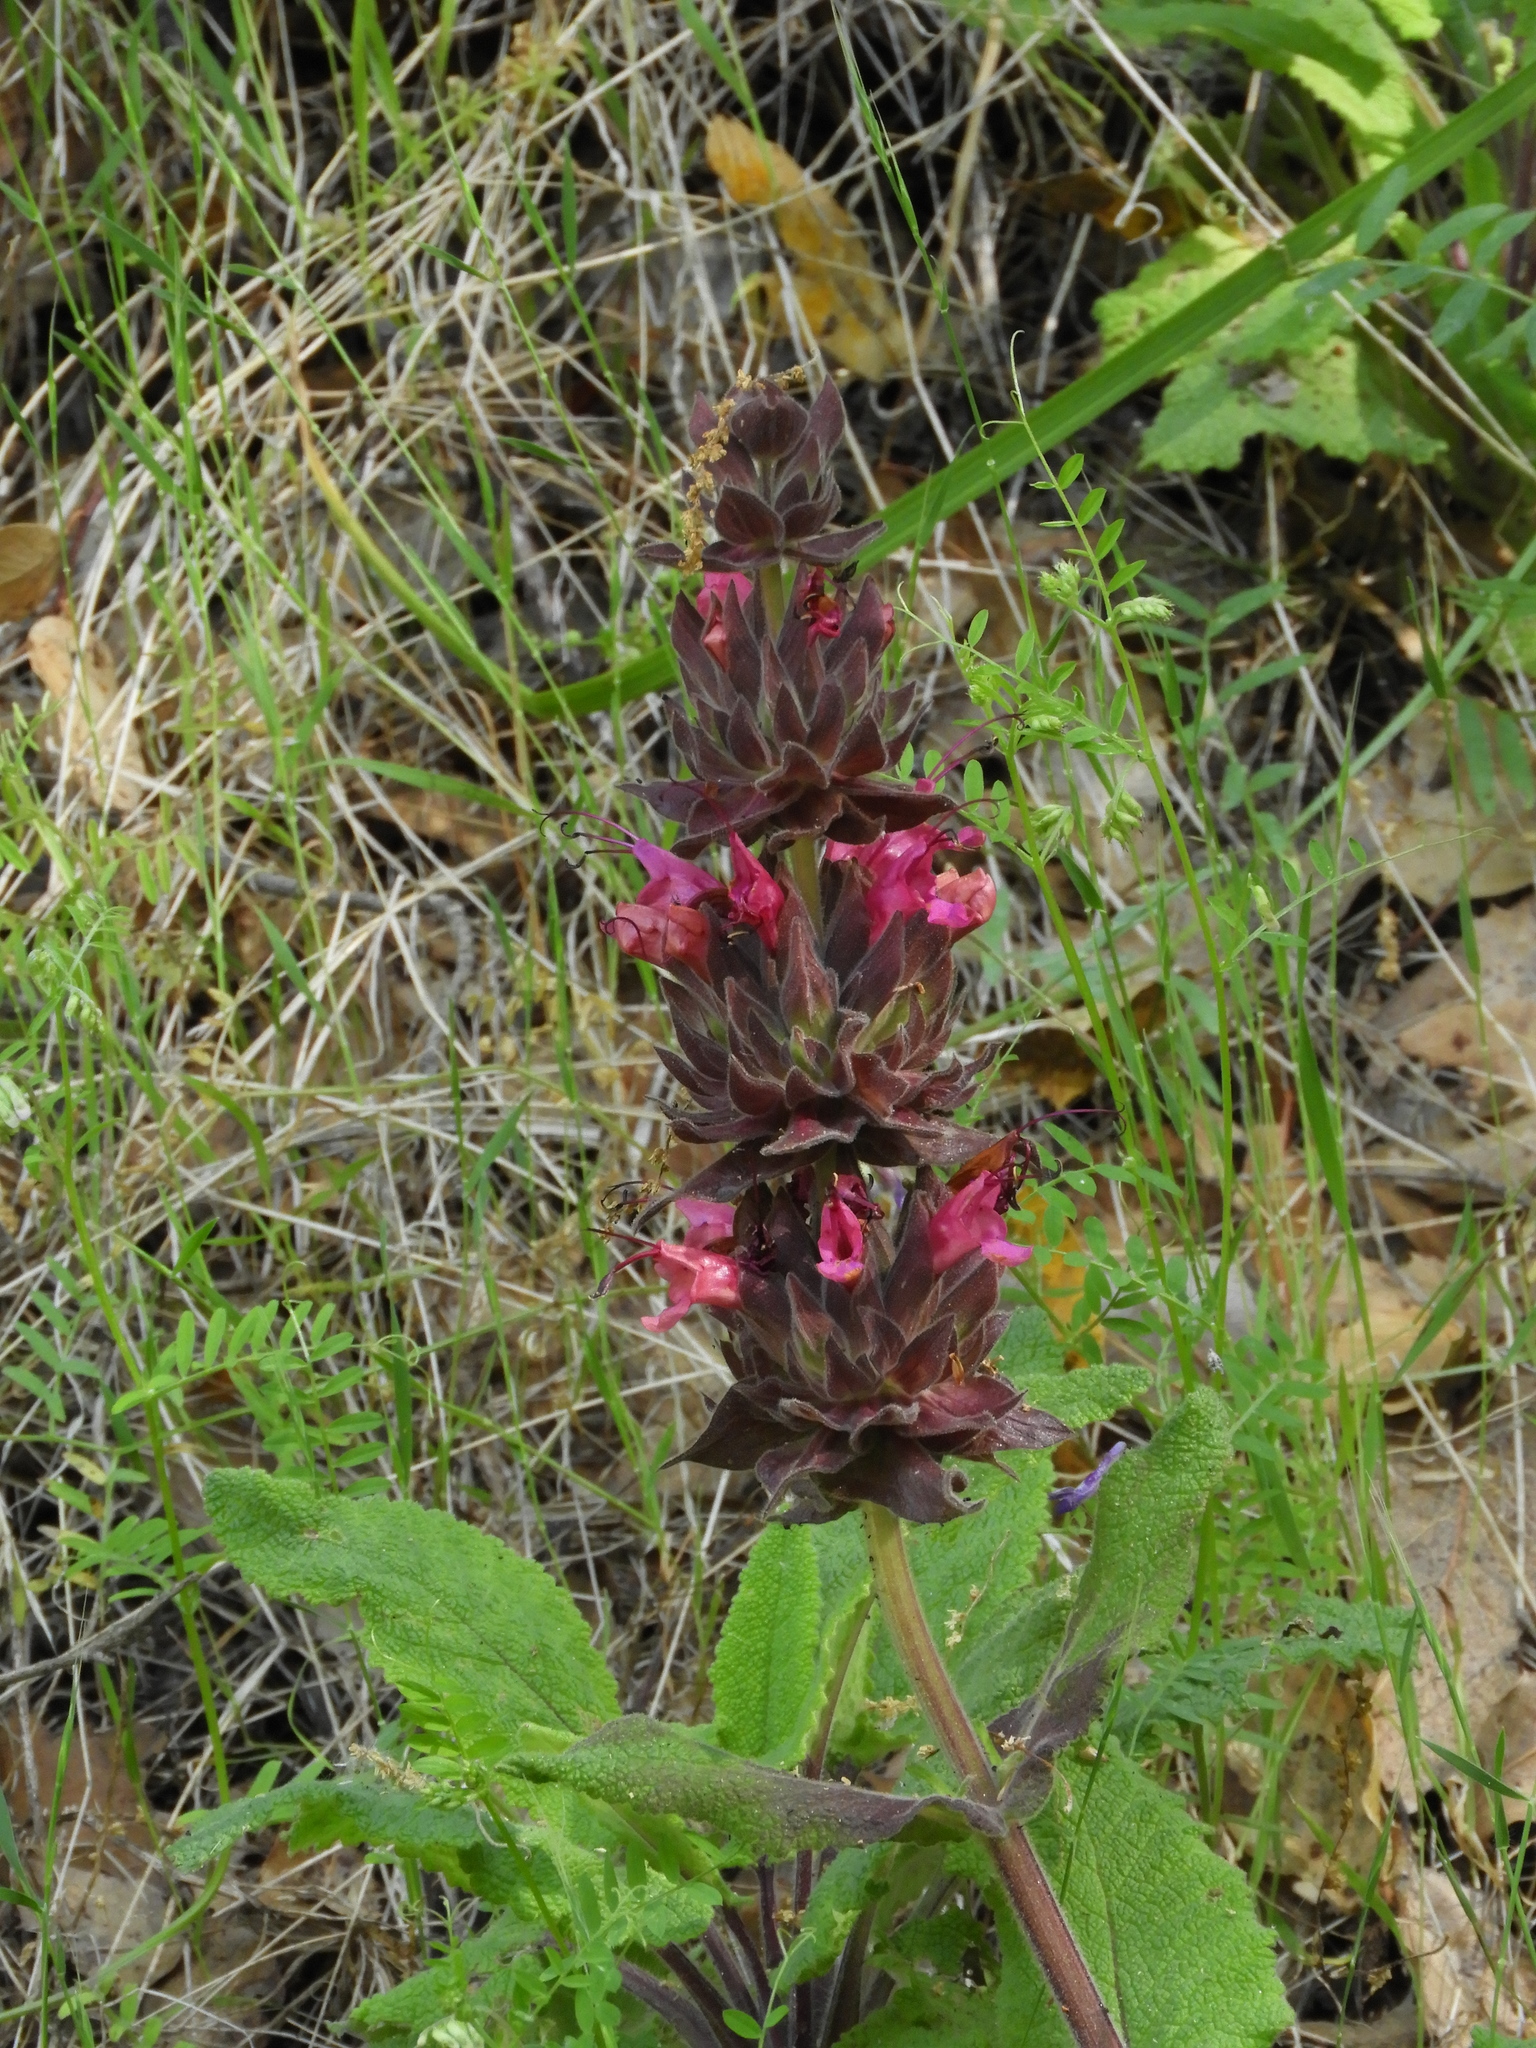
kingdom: Plantae
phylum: Tracheophyta
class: Magnoliopsida
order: Lamiales
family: Lamiaceae
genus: Salvia
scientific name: Salvia spathacea
